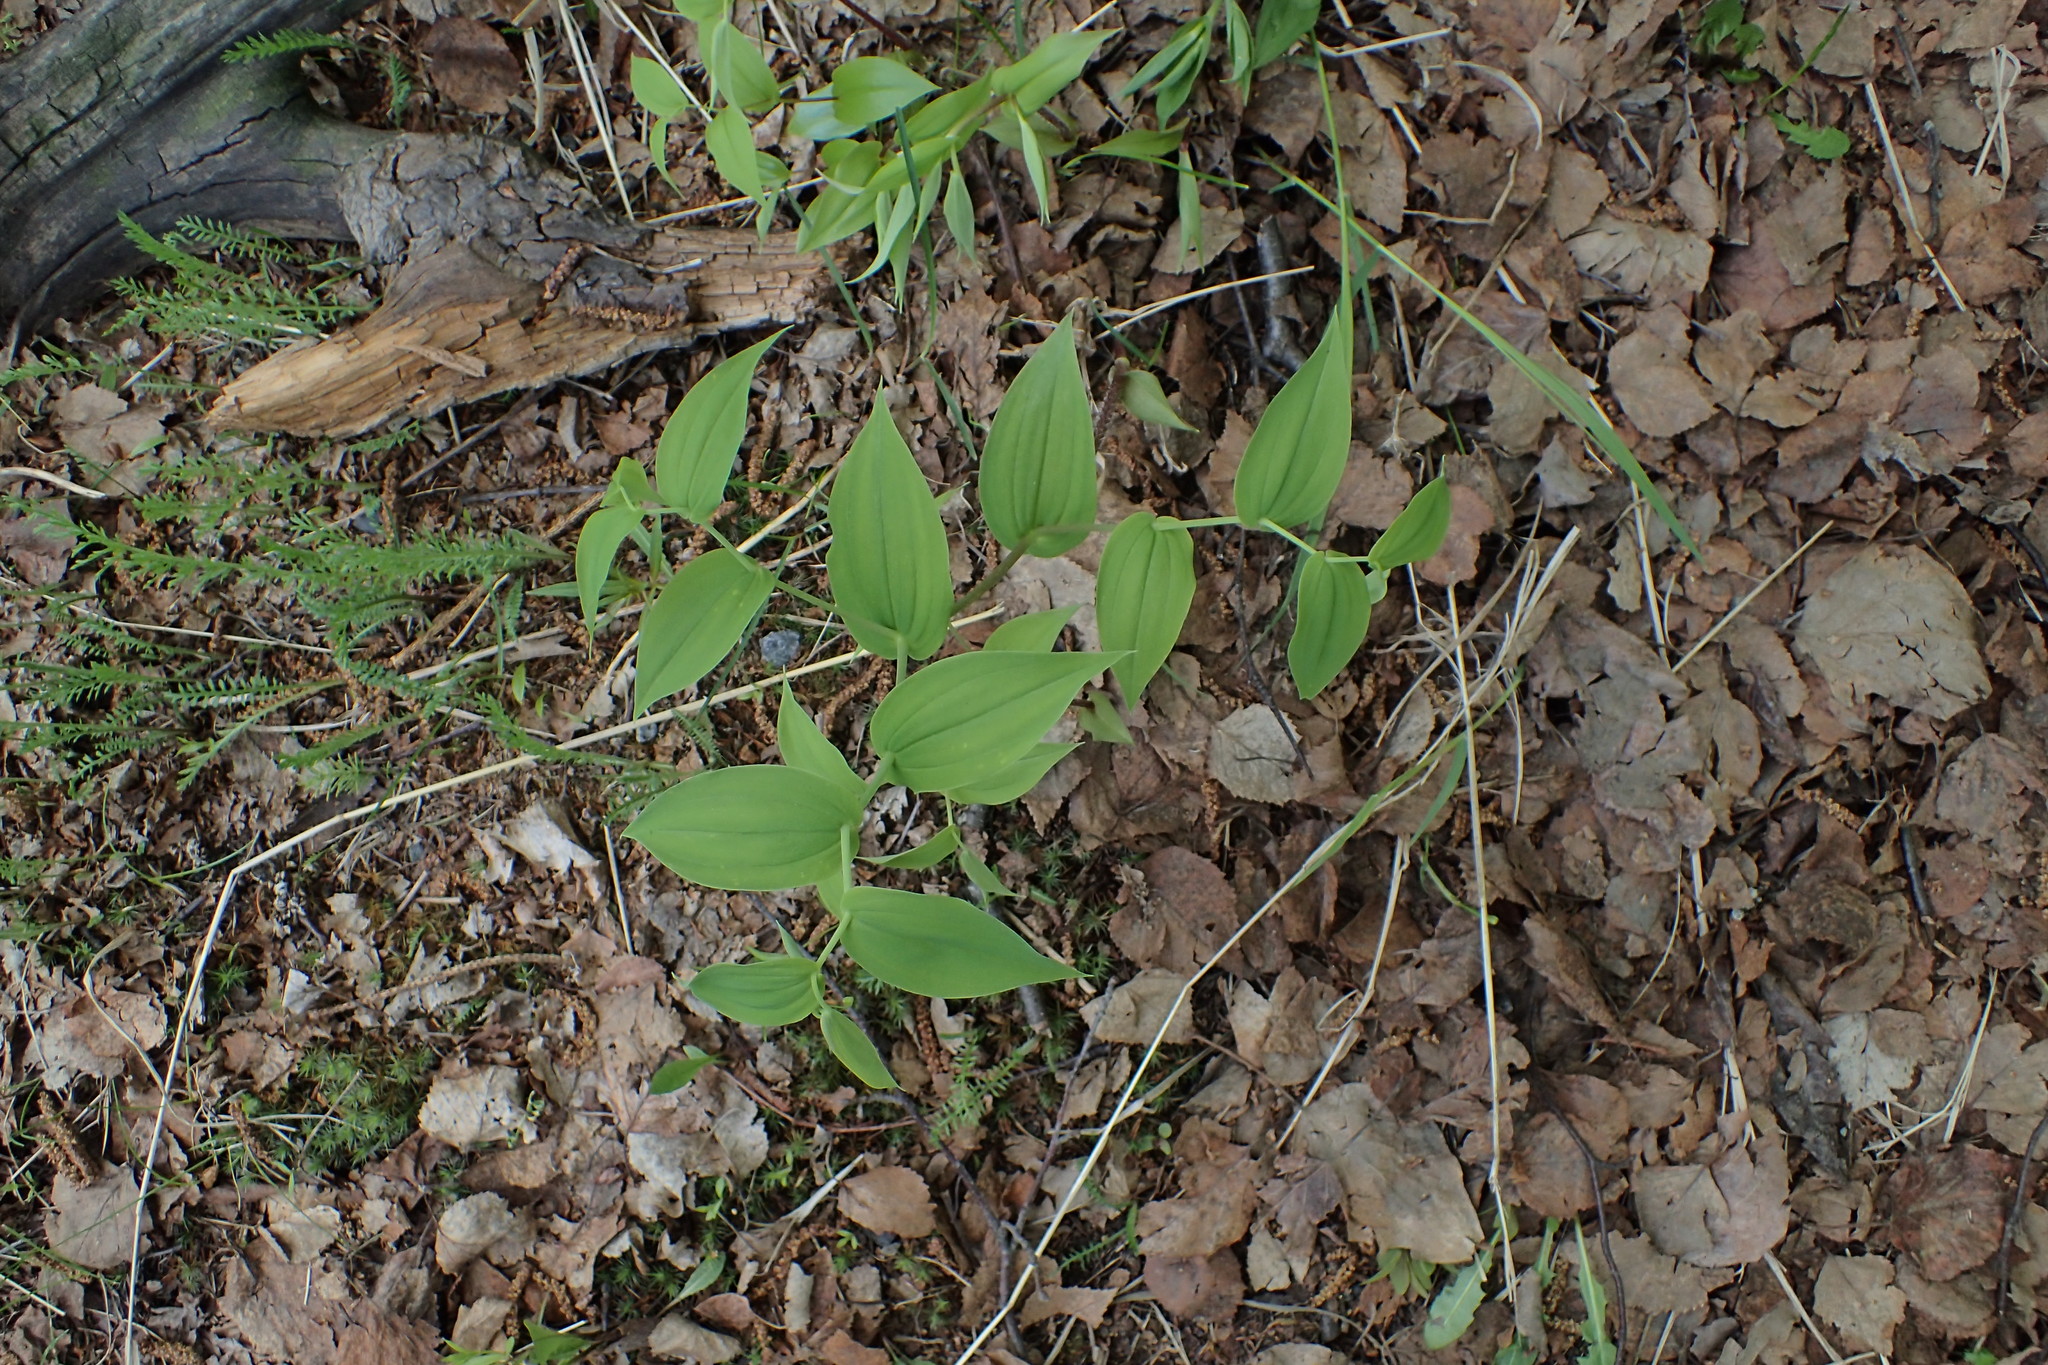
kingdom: Plantae
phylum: Tracheophyta
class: Liliopsida
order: Liliales
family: Liliaceae
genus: Streptopus
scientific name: Streptopus amplexifolius
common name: Clasp twisted stalk
